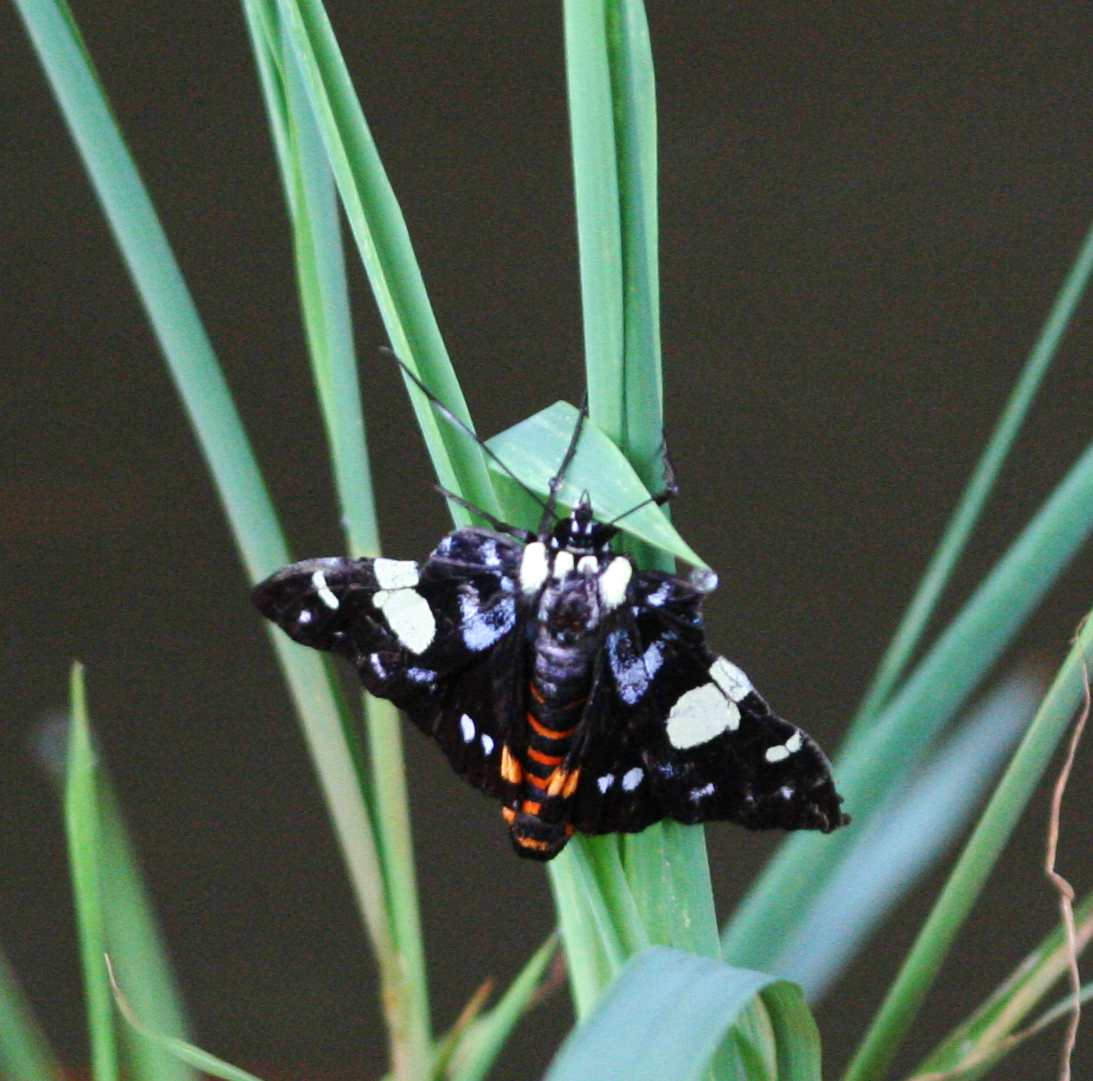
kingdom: Animalia
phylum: Arthropoda
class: Insecta
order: Lepidoptera
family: Noctuidae
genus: Episteme
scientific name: Episteme adulatrix
